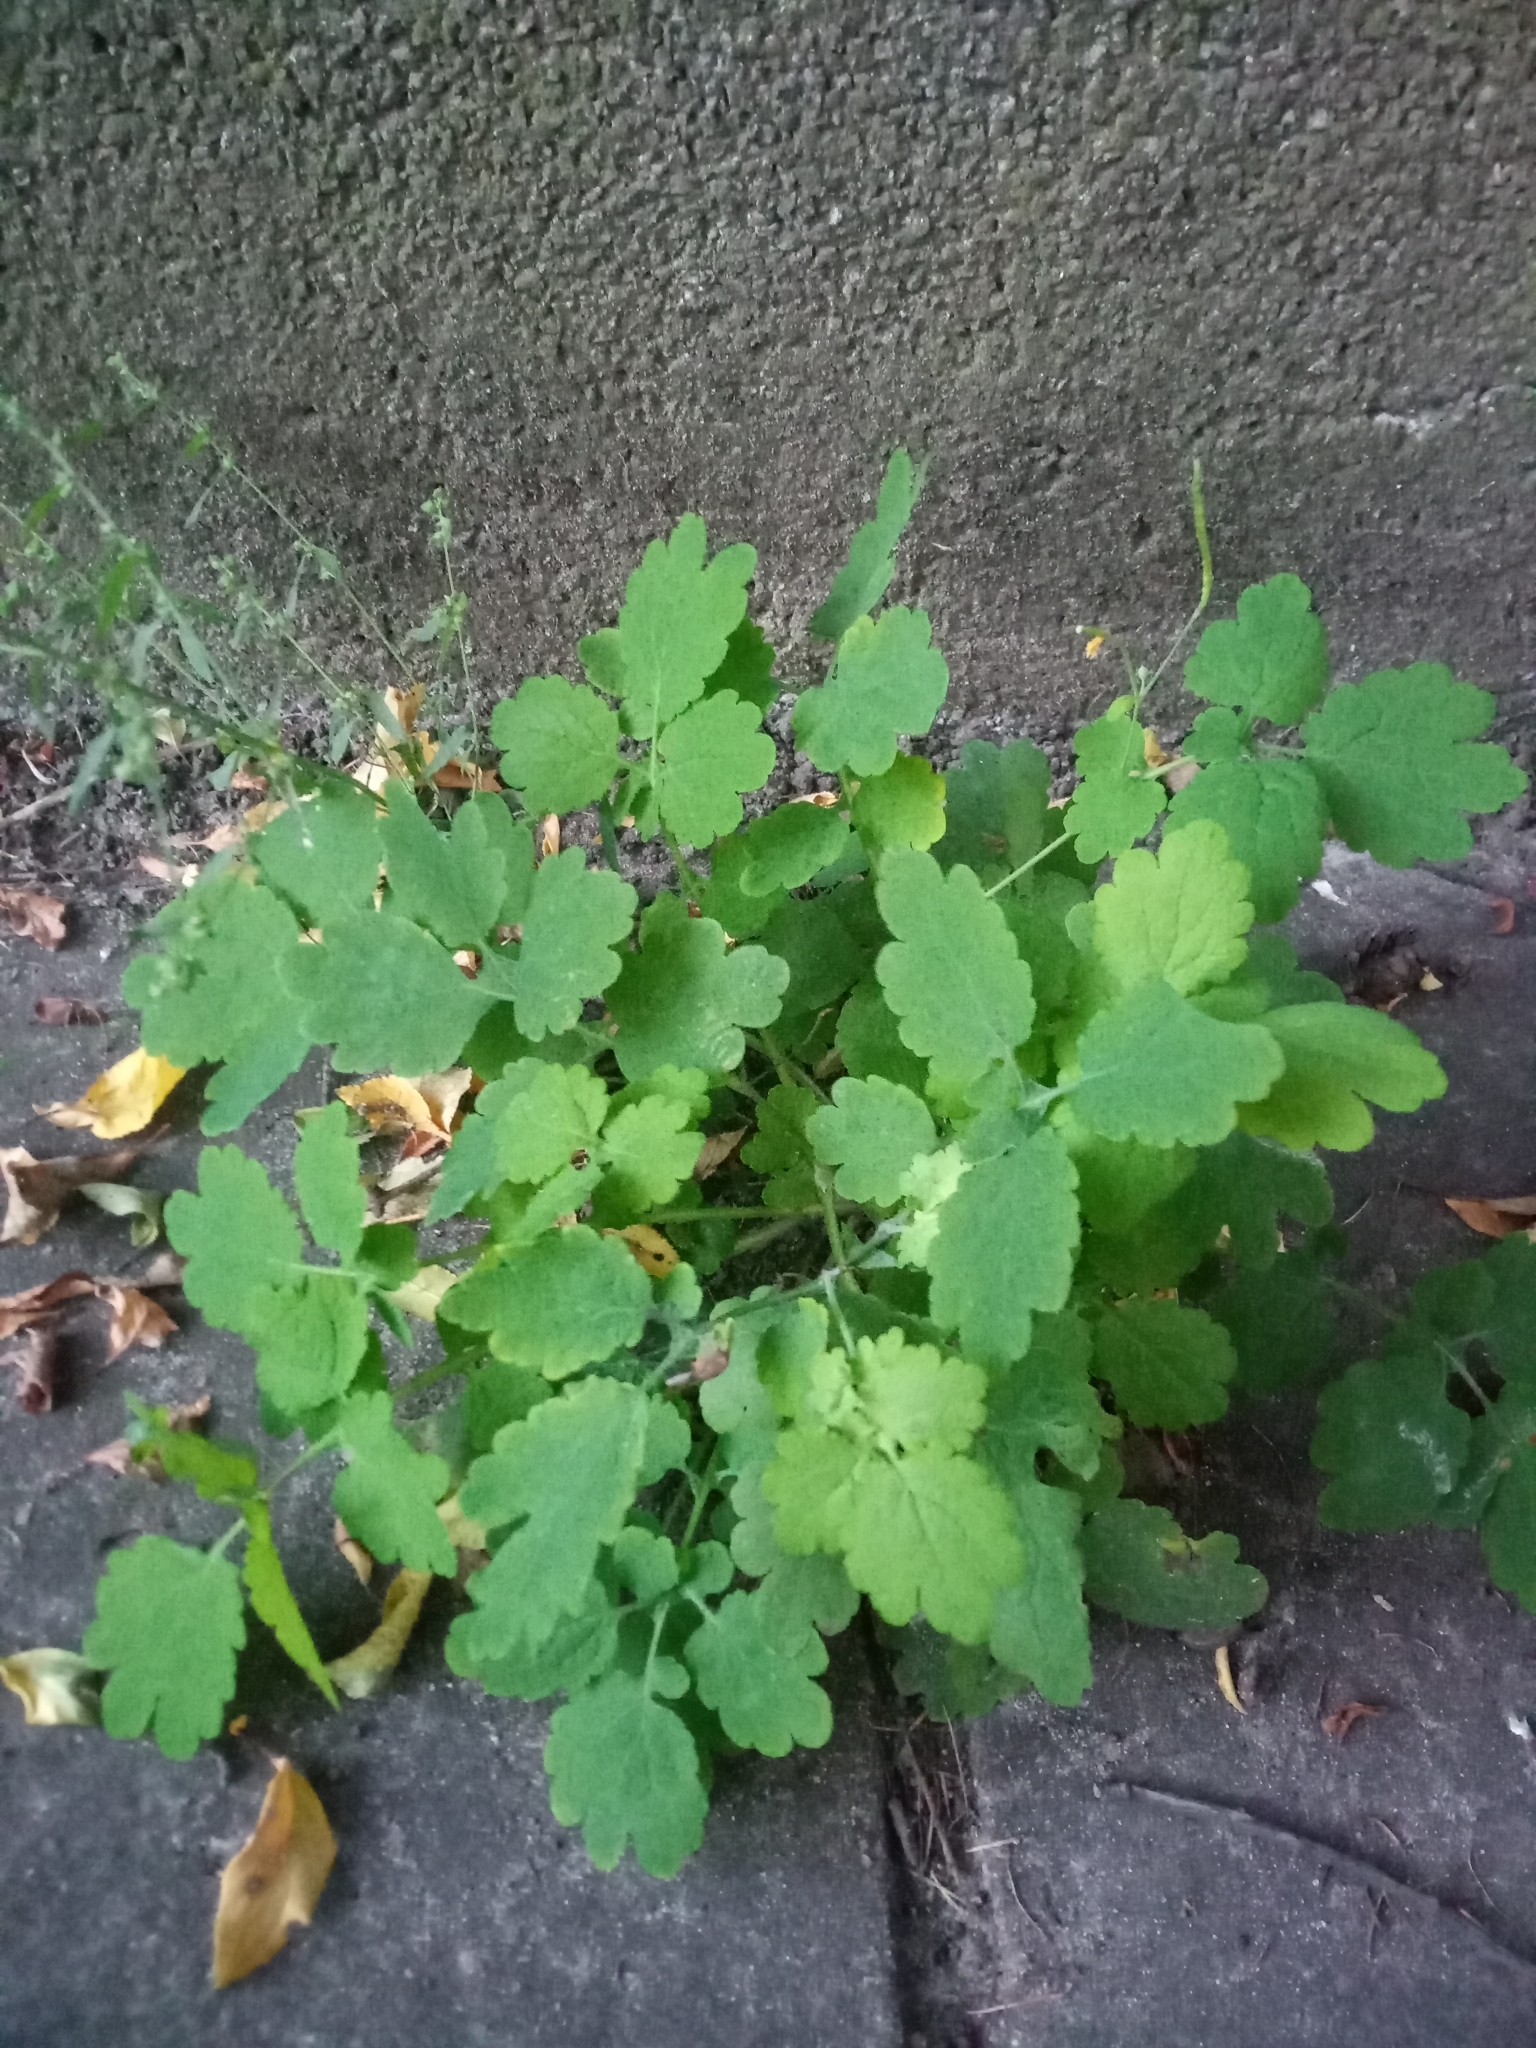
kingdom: Plantae
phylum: Tracheophyta
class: Magnoliopsida
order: Ranunculales
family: Papaveraceae
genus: Chelidonium
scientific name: Chelidonium majus
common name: Greater celandine
